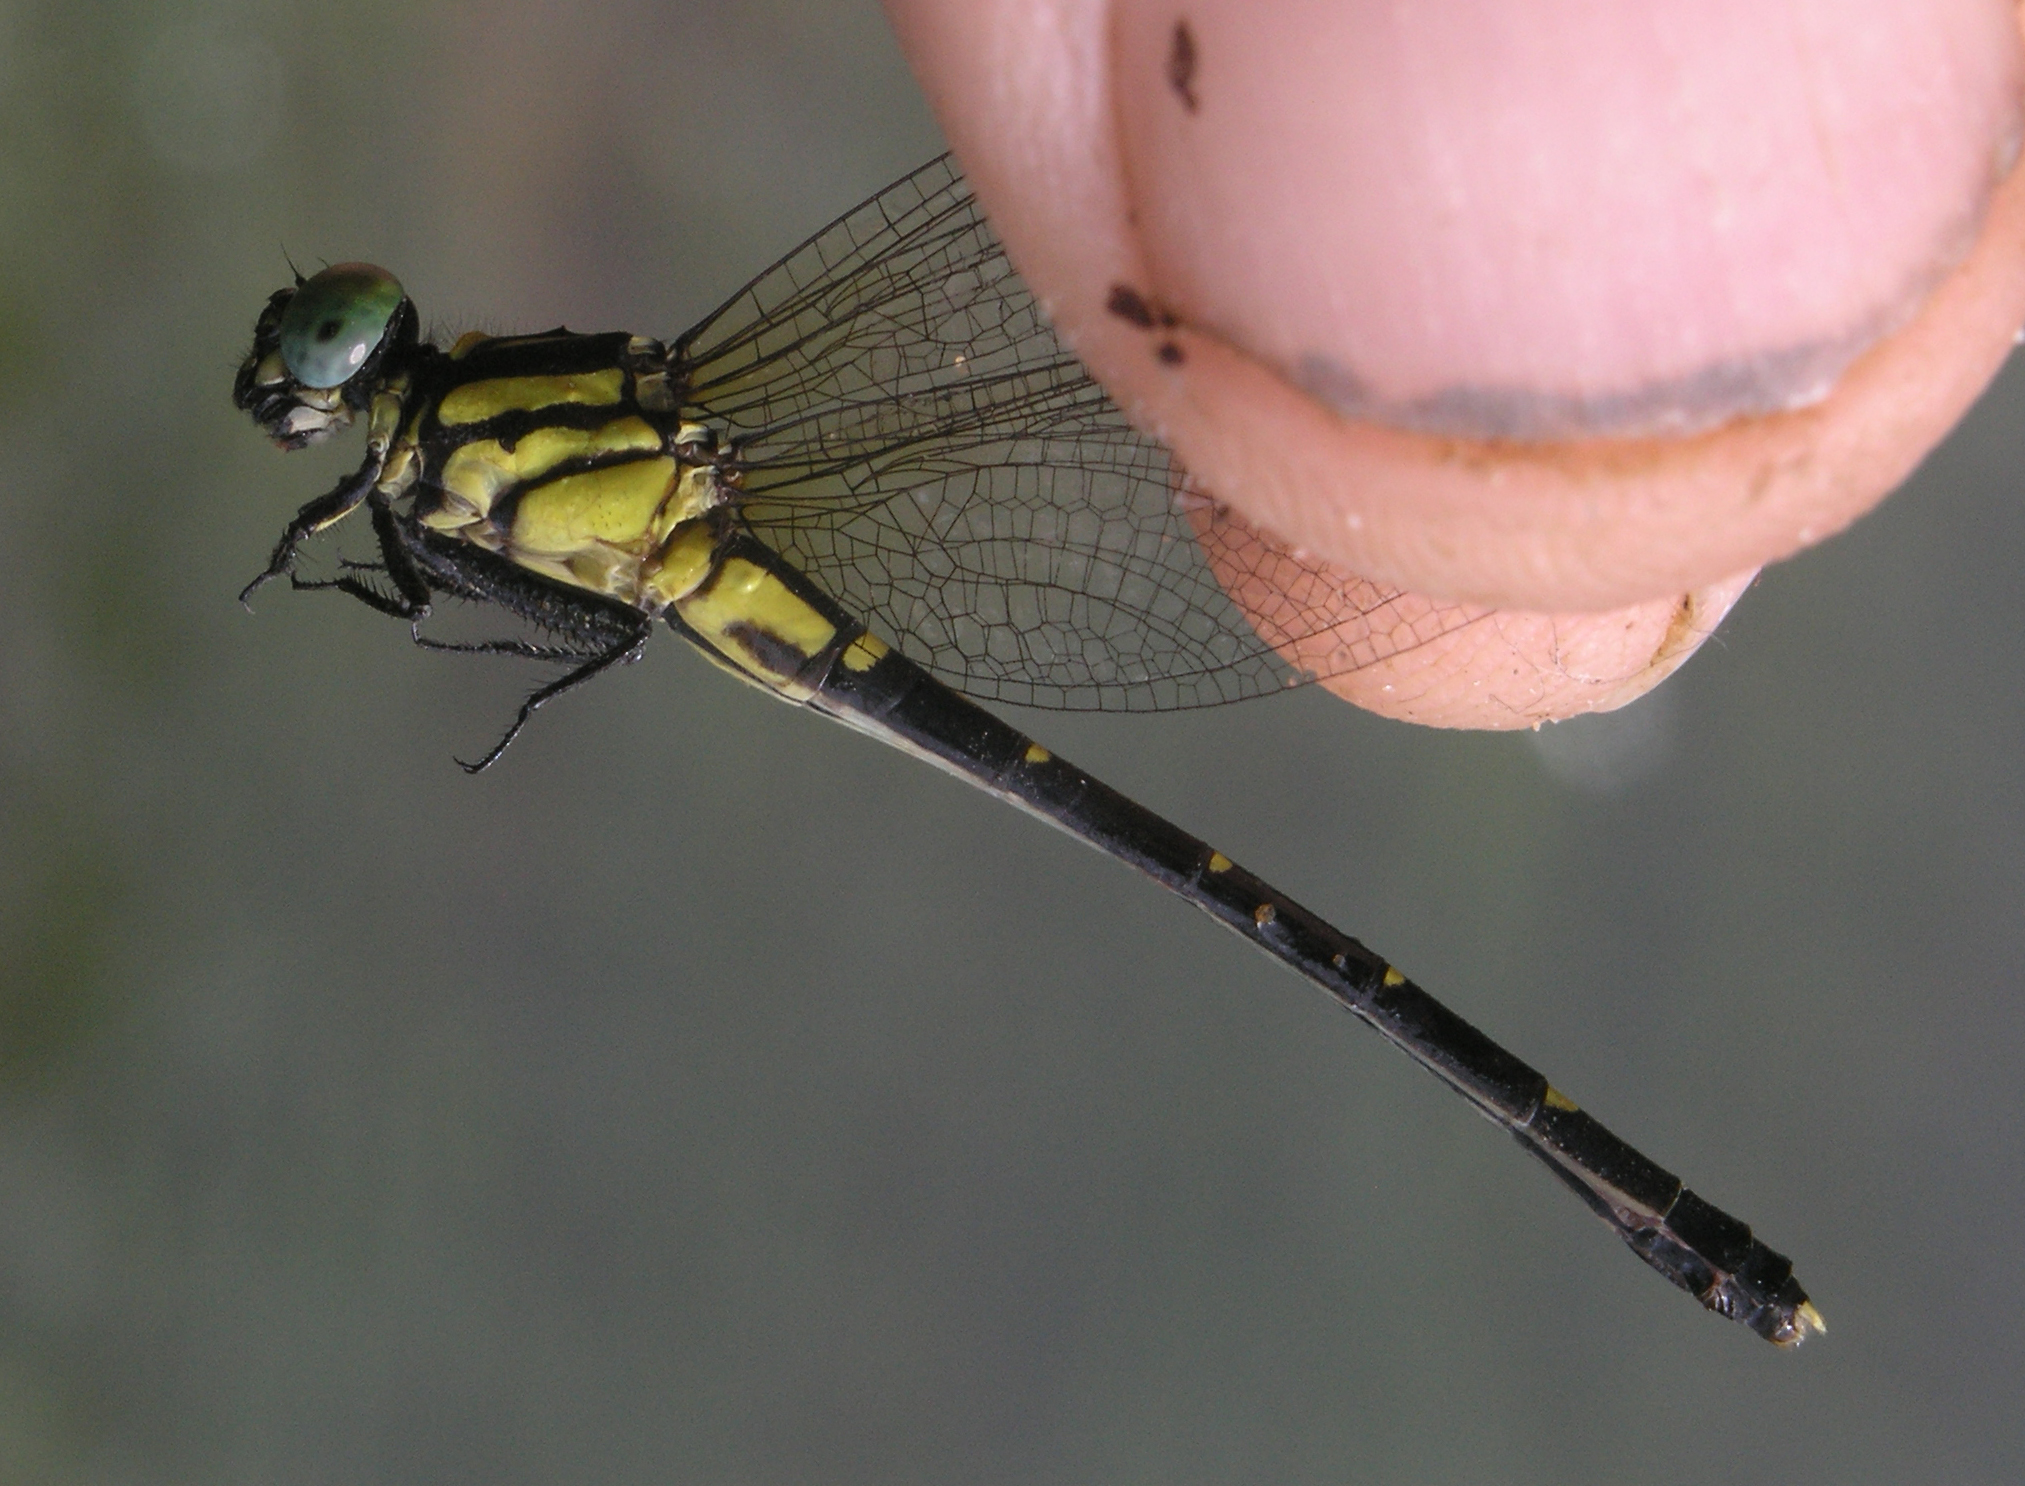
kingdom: Animalia
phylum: Arthropoda
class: Insecta
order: Odonata
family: Gomphidae
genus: Nepogomphus
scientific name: Nepogomphus walli
